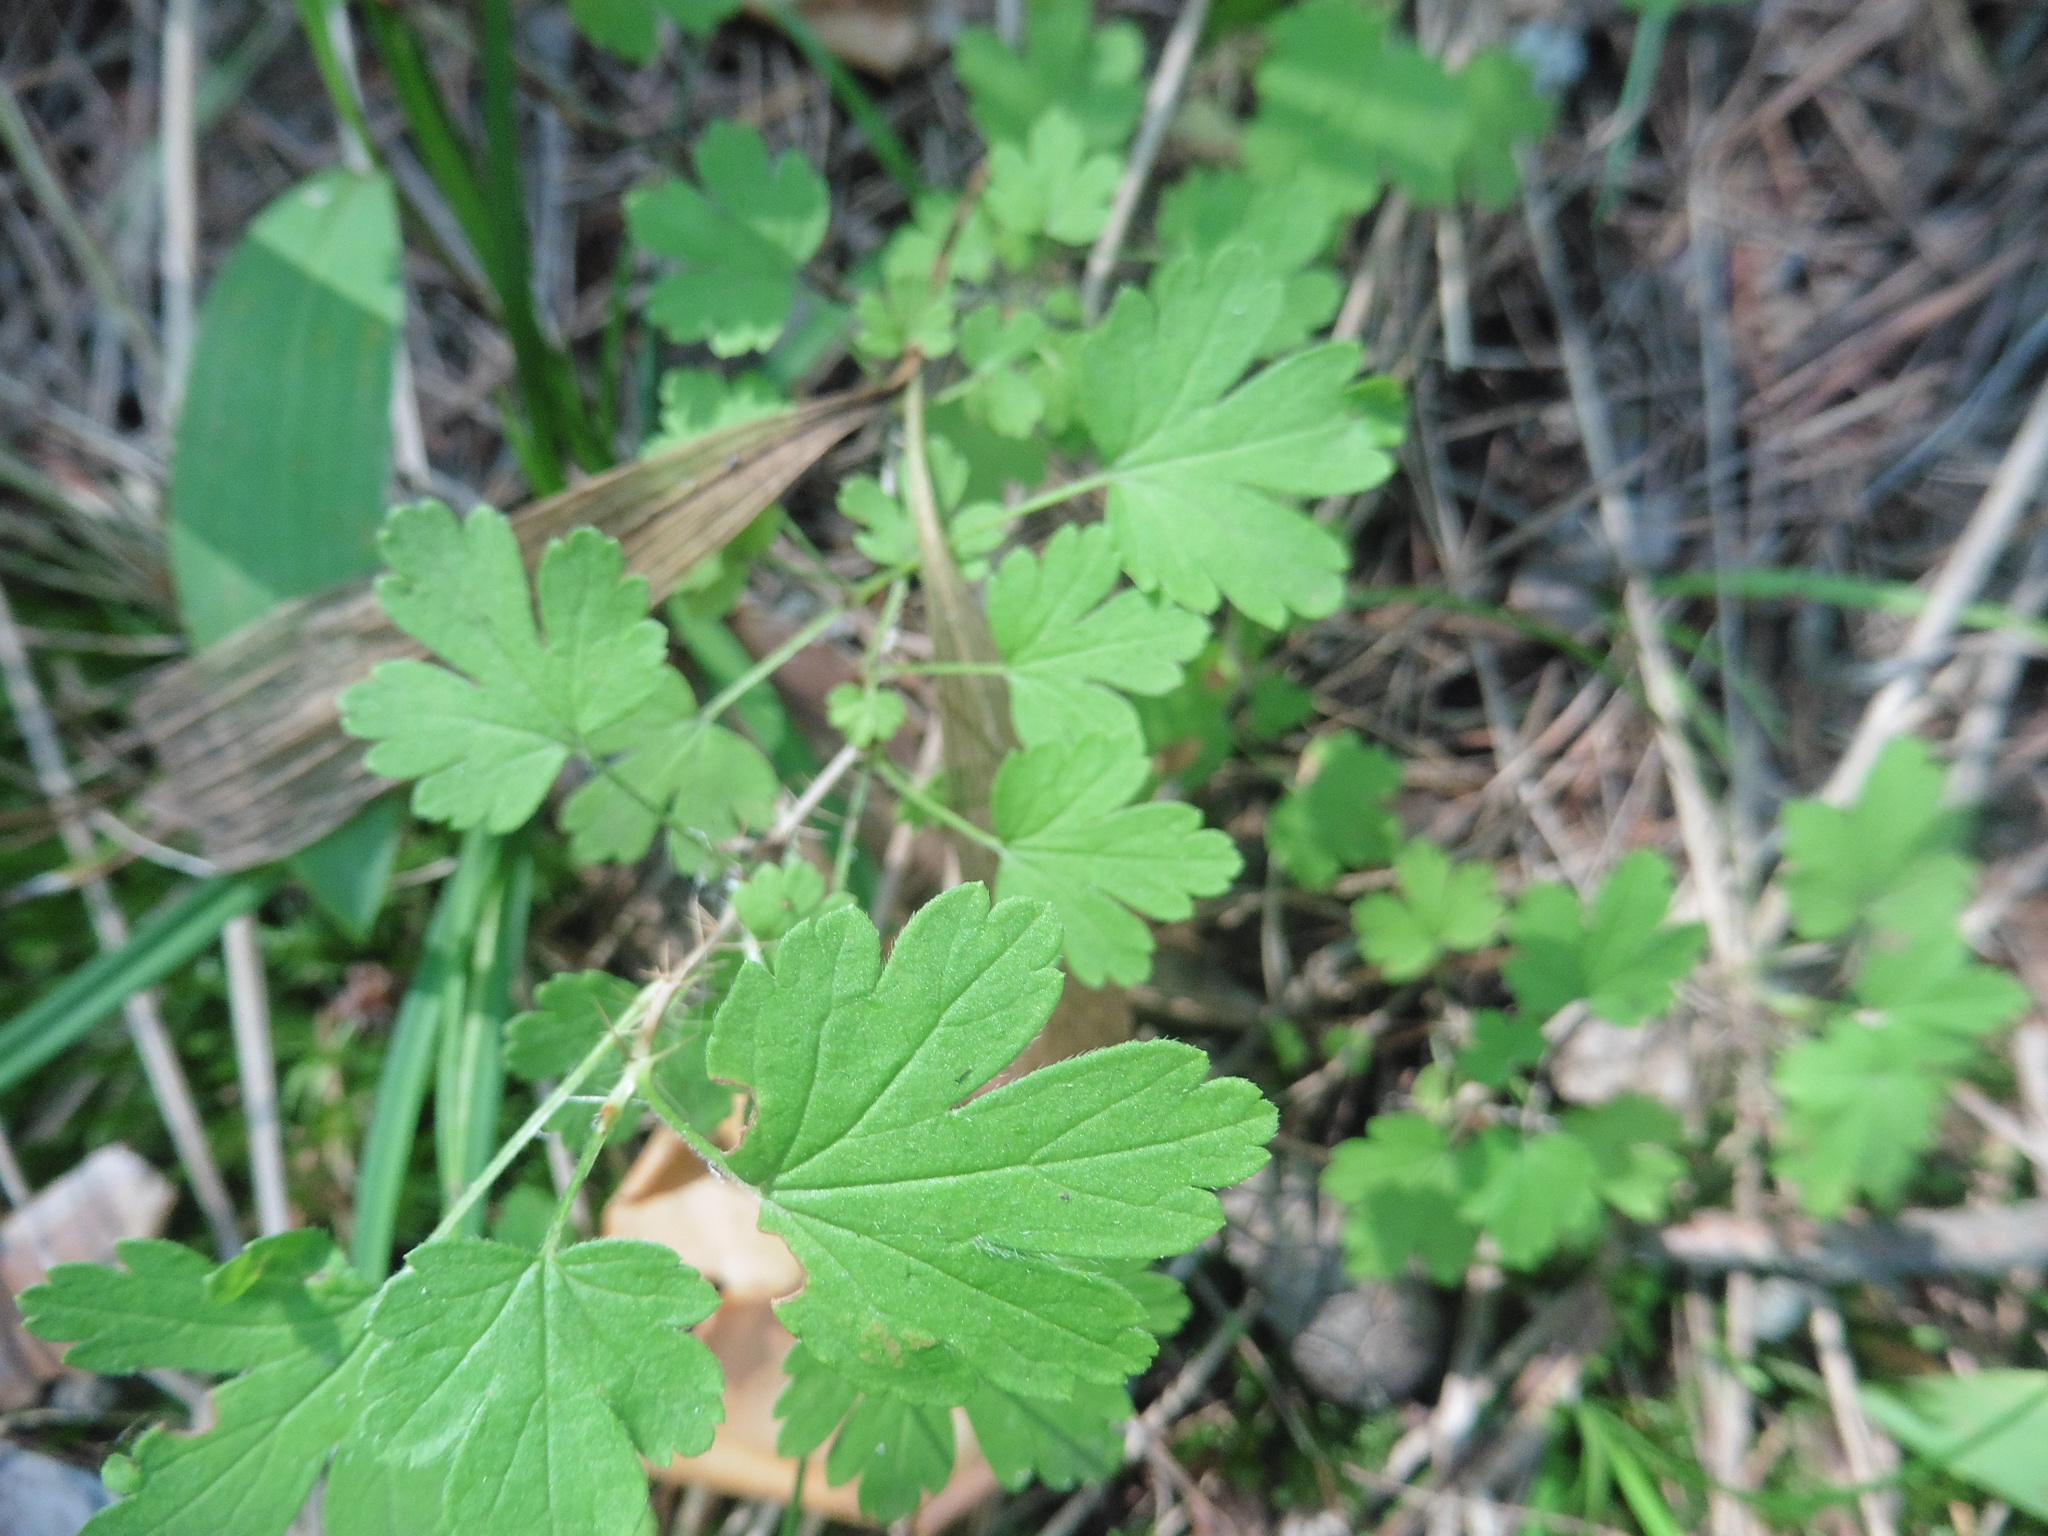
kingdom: Plantae
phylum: Tracheophyta
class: Magnoliopsida
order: Saxifragales
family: Grossulariaceae
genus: Ribes
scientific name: Ribes uva-crispa
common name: Gooseberry
